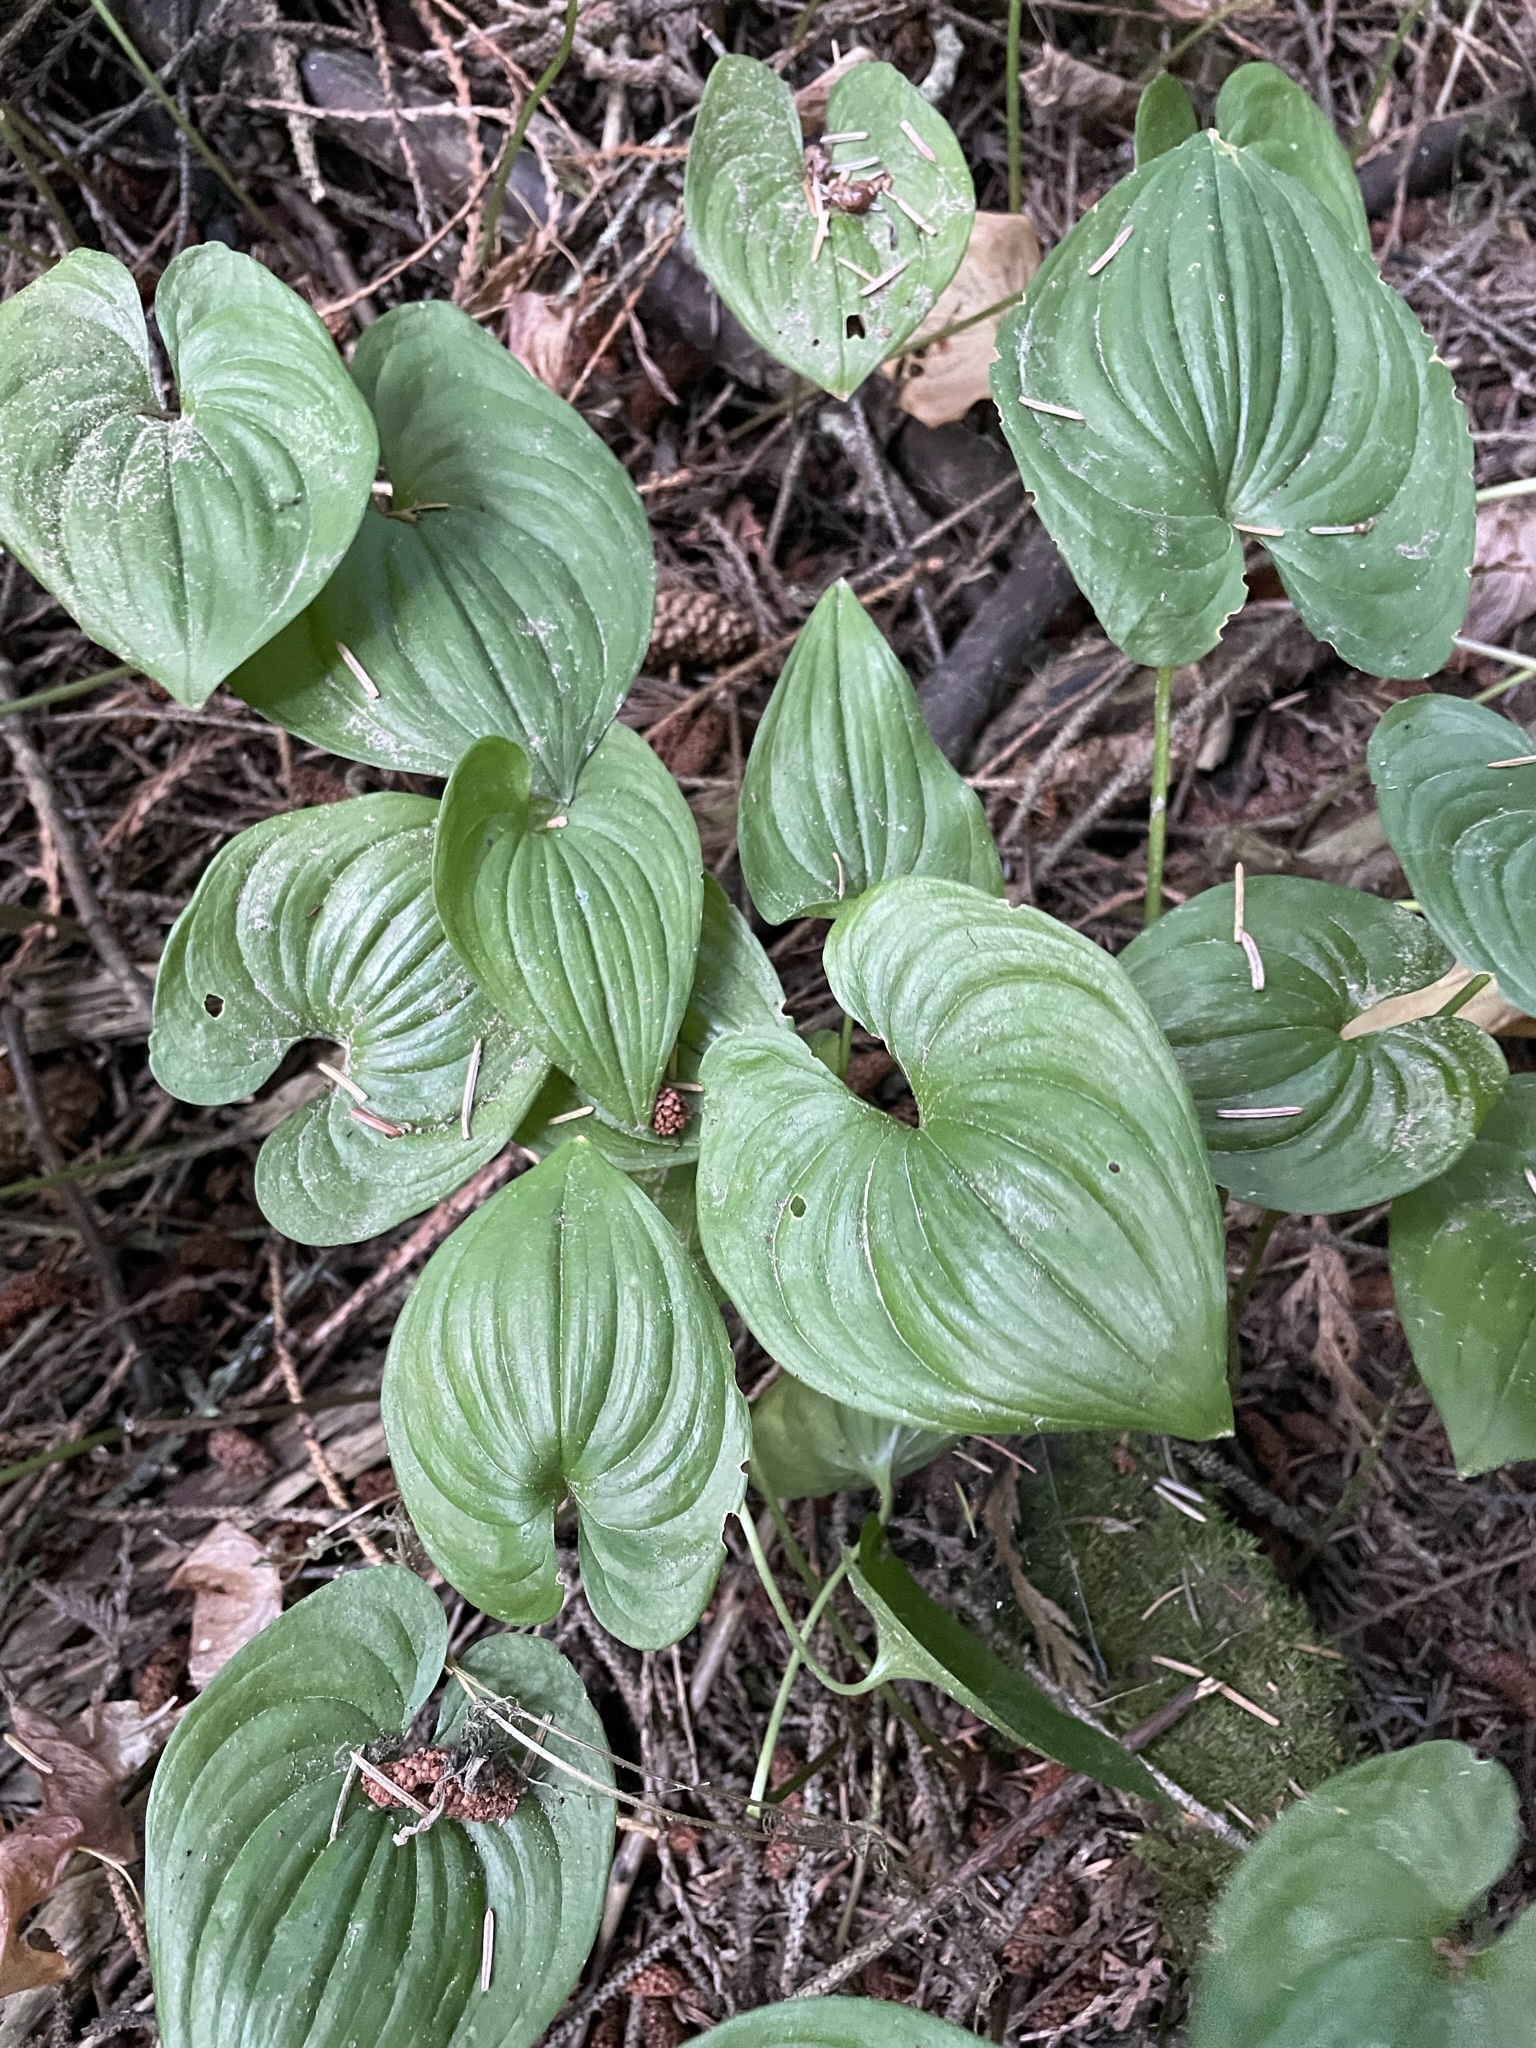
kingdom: Plantae
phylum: Tracheophyta
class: Liliopsida
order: Asparagales
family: Asparagaceae
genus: Maianthemum
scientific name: Maianthemum dilatatum
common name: False lily-of-the-valley
